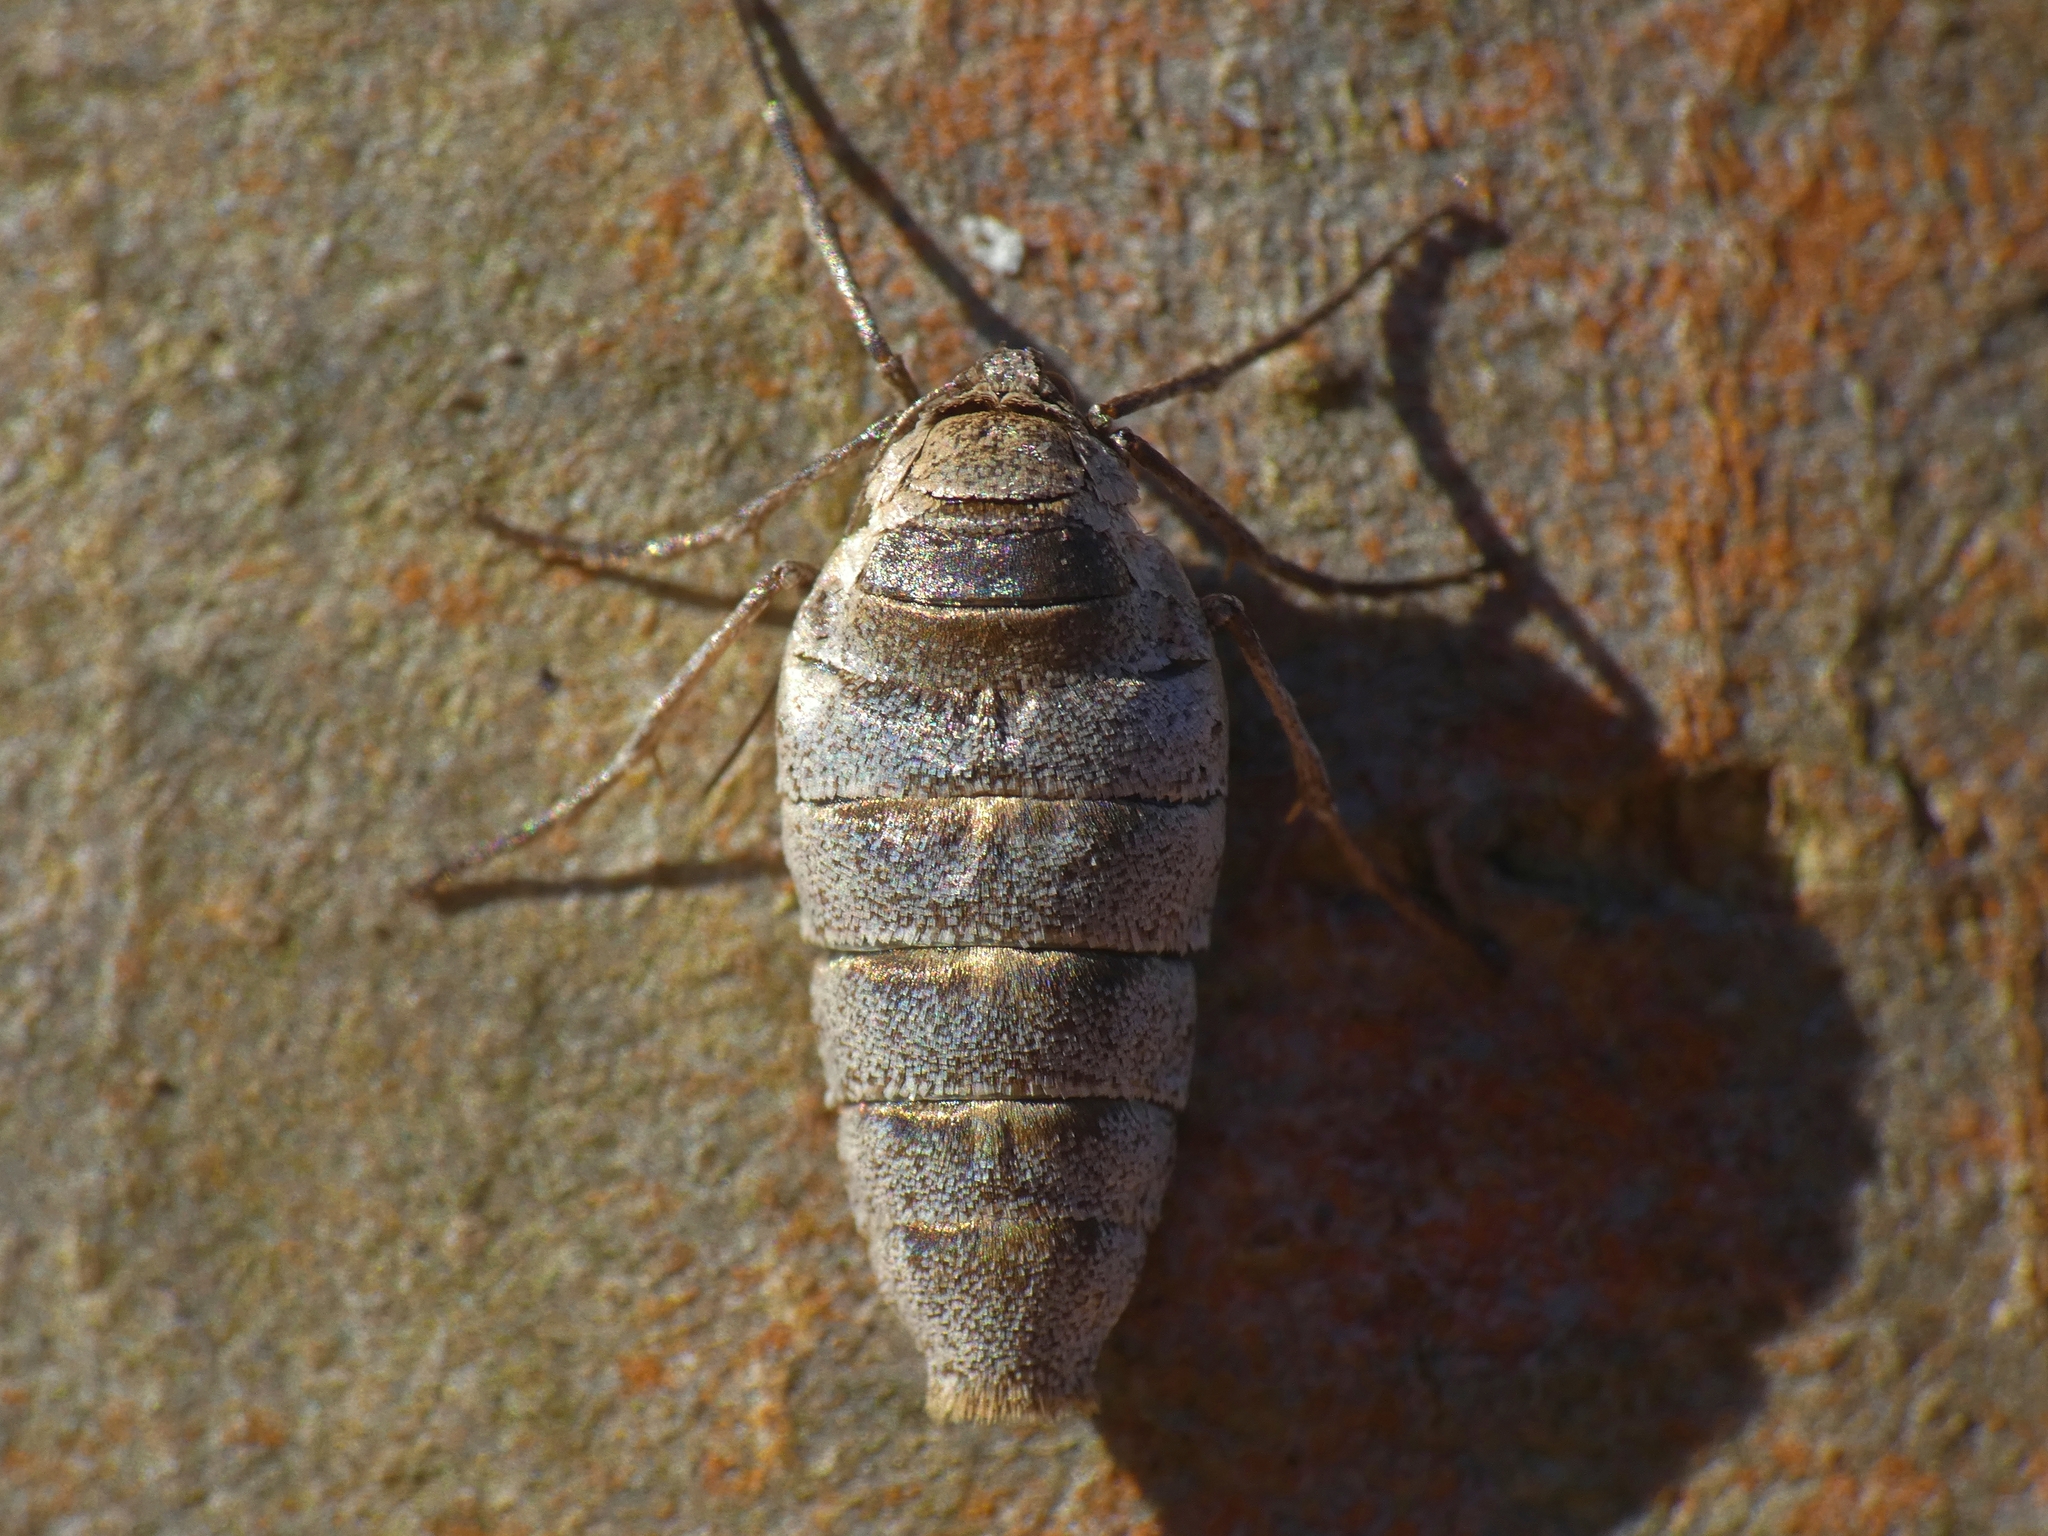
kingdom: Animalia
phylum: Arthropoda
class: Insecta
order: Lepidoptera
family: Geometridae
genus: Alsophila
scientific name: Alsophila pometaria
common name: Fall cankerworm
